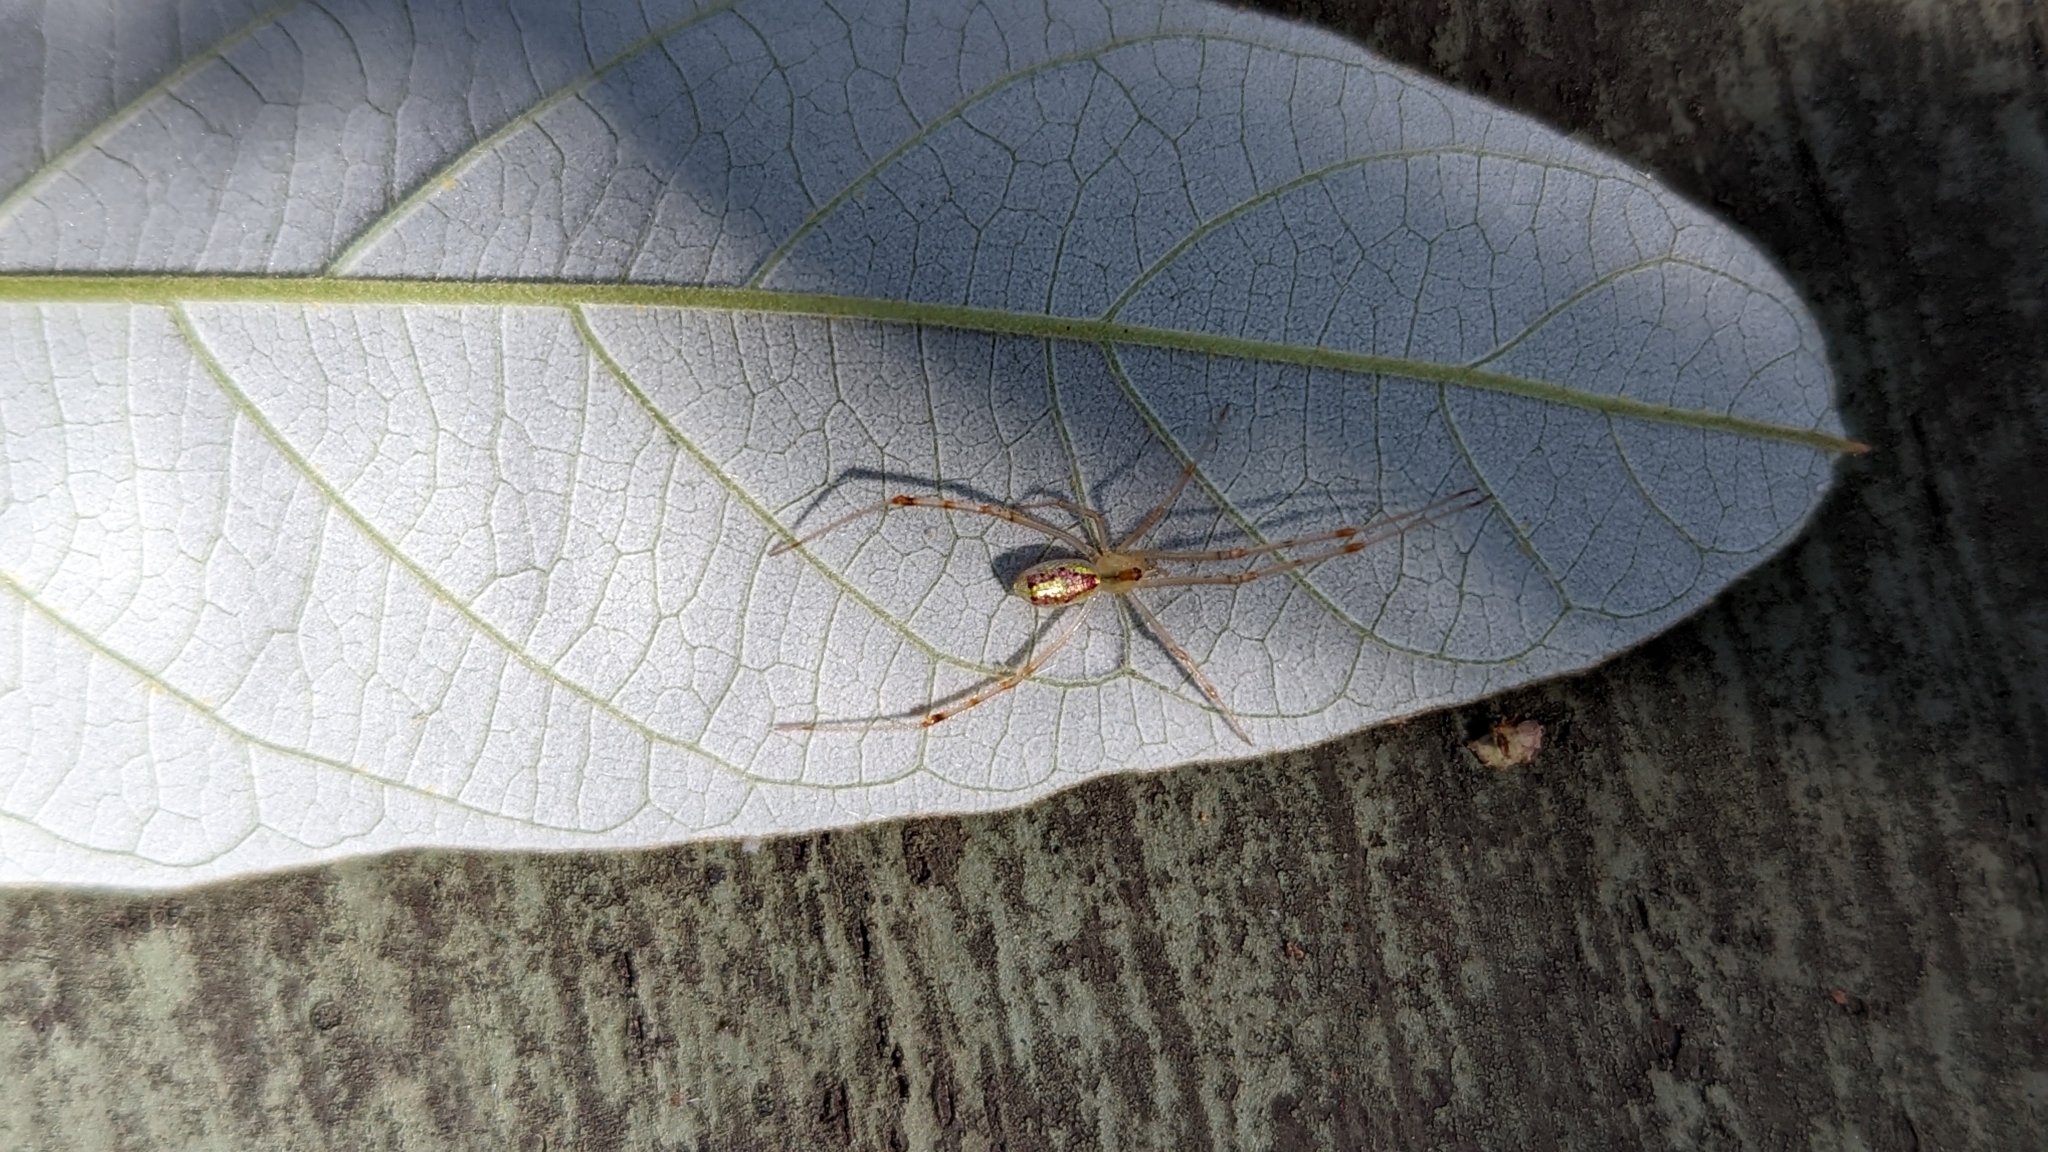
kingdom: Animalia
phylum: Arthropoda
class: Arachnida
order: Araneae
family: Theridiidae
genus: Thwaitesia
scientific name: Thwaitesia nigronodosa
